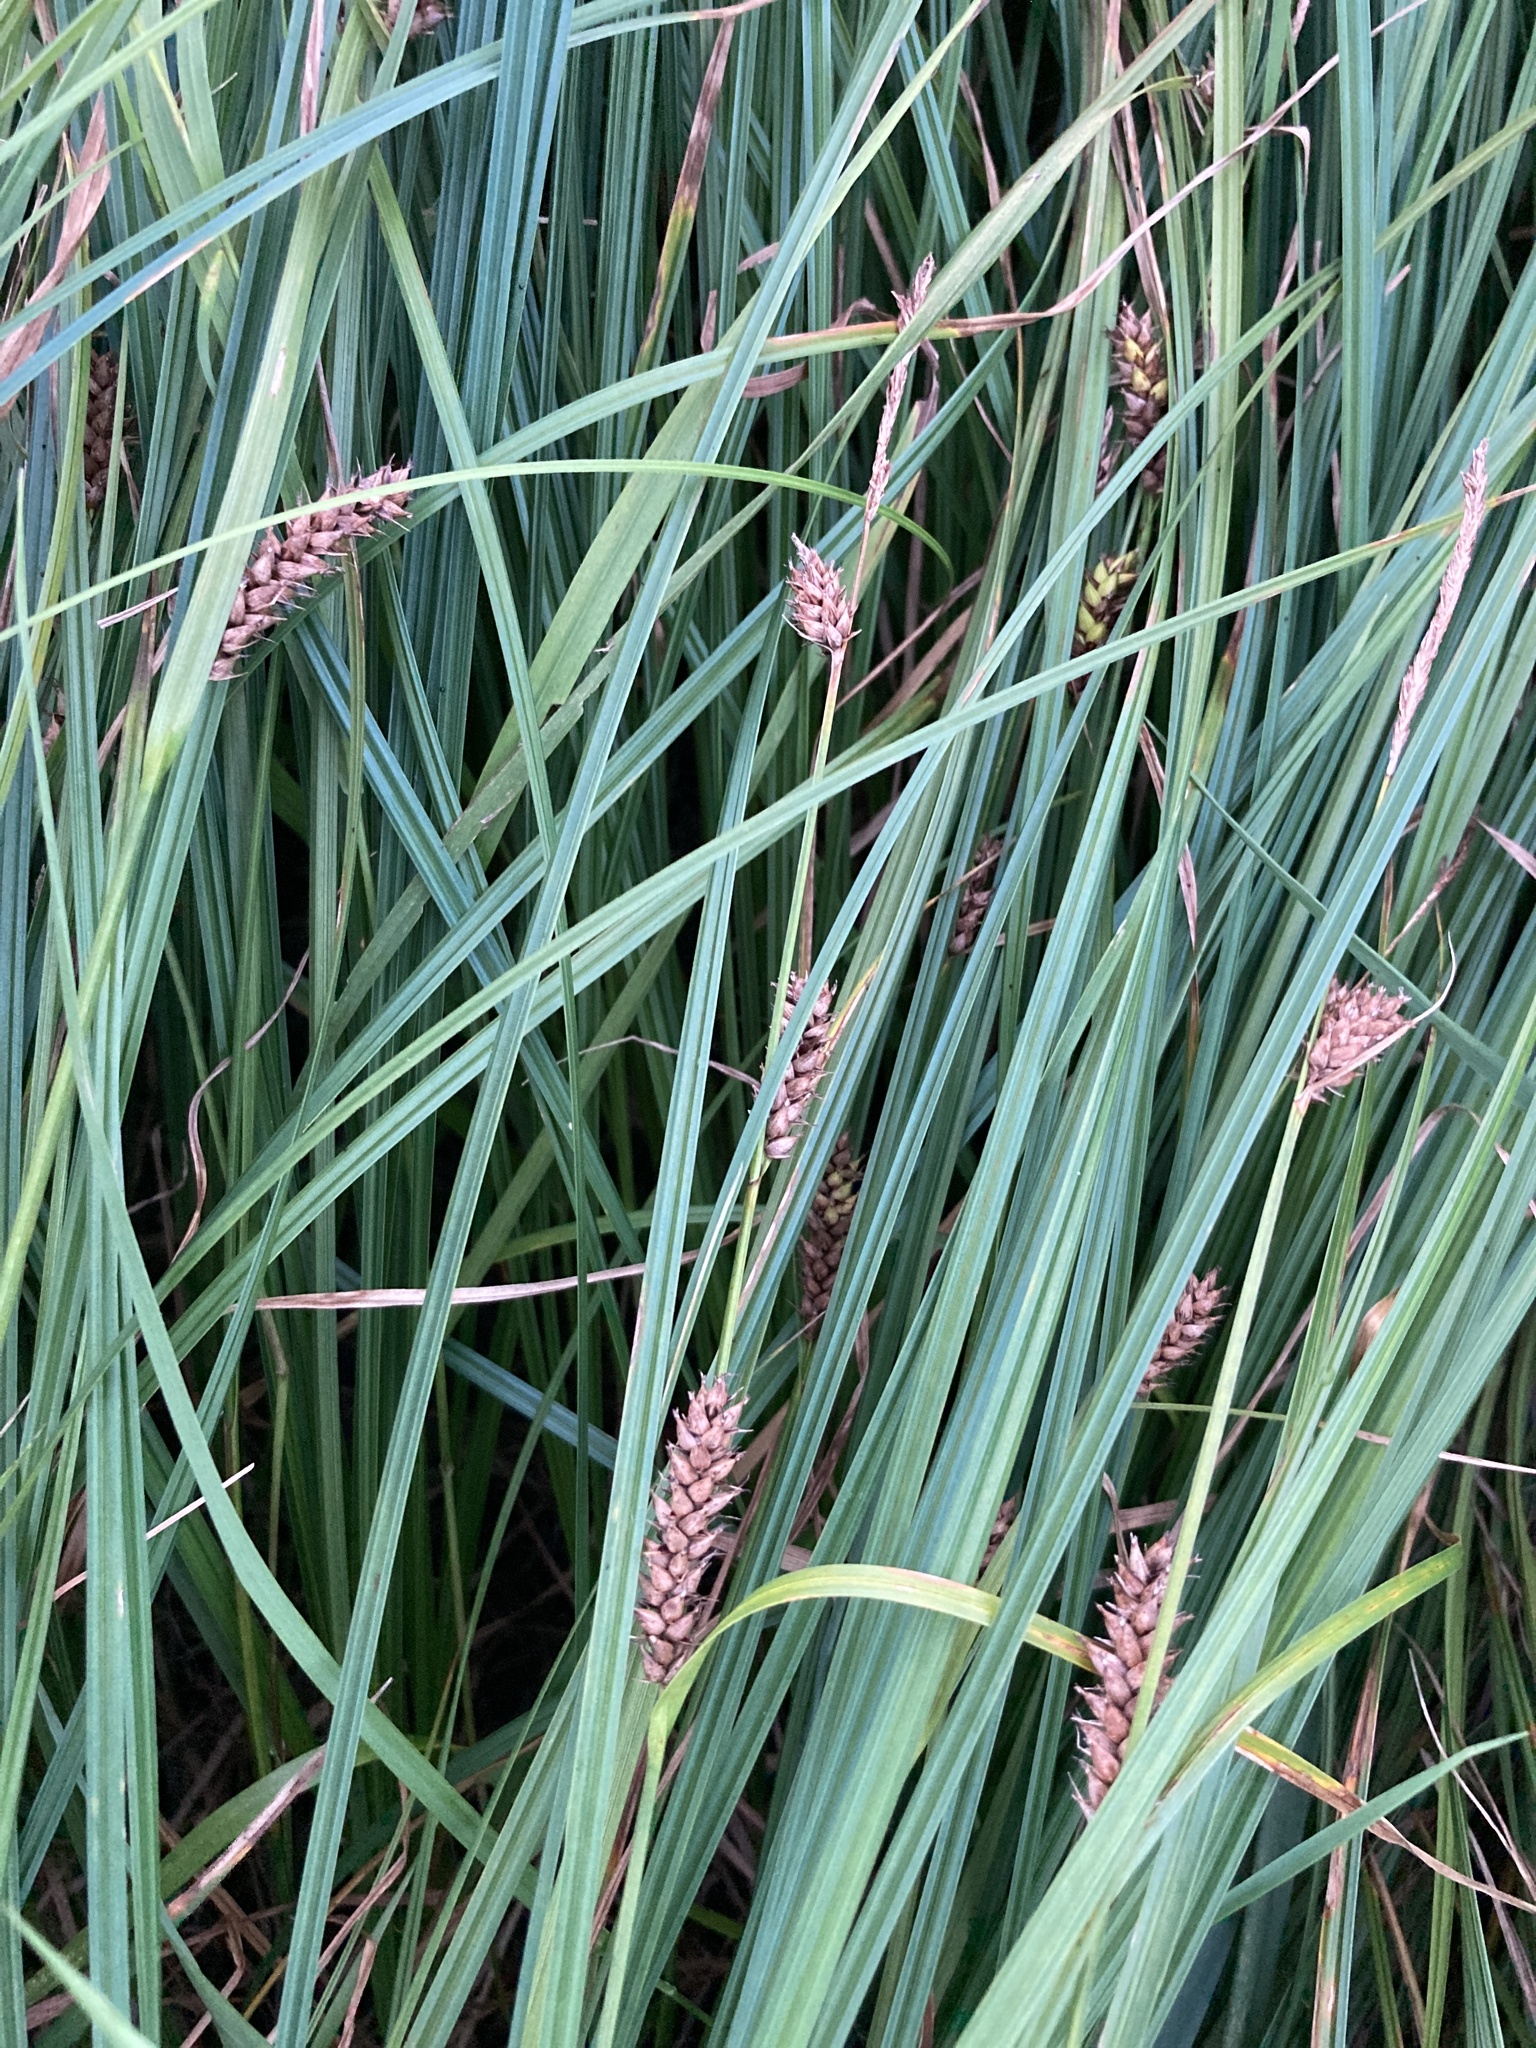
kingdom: Plantae
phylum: Tracheophyta
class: Liliopsida
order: Poales
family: Cyperaceae
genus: Carex
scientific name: Carex melanostachya
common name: Black-spiked sedge
